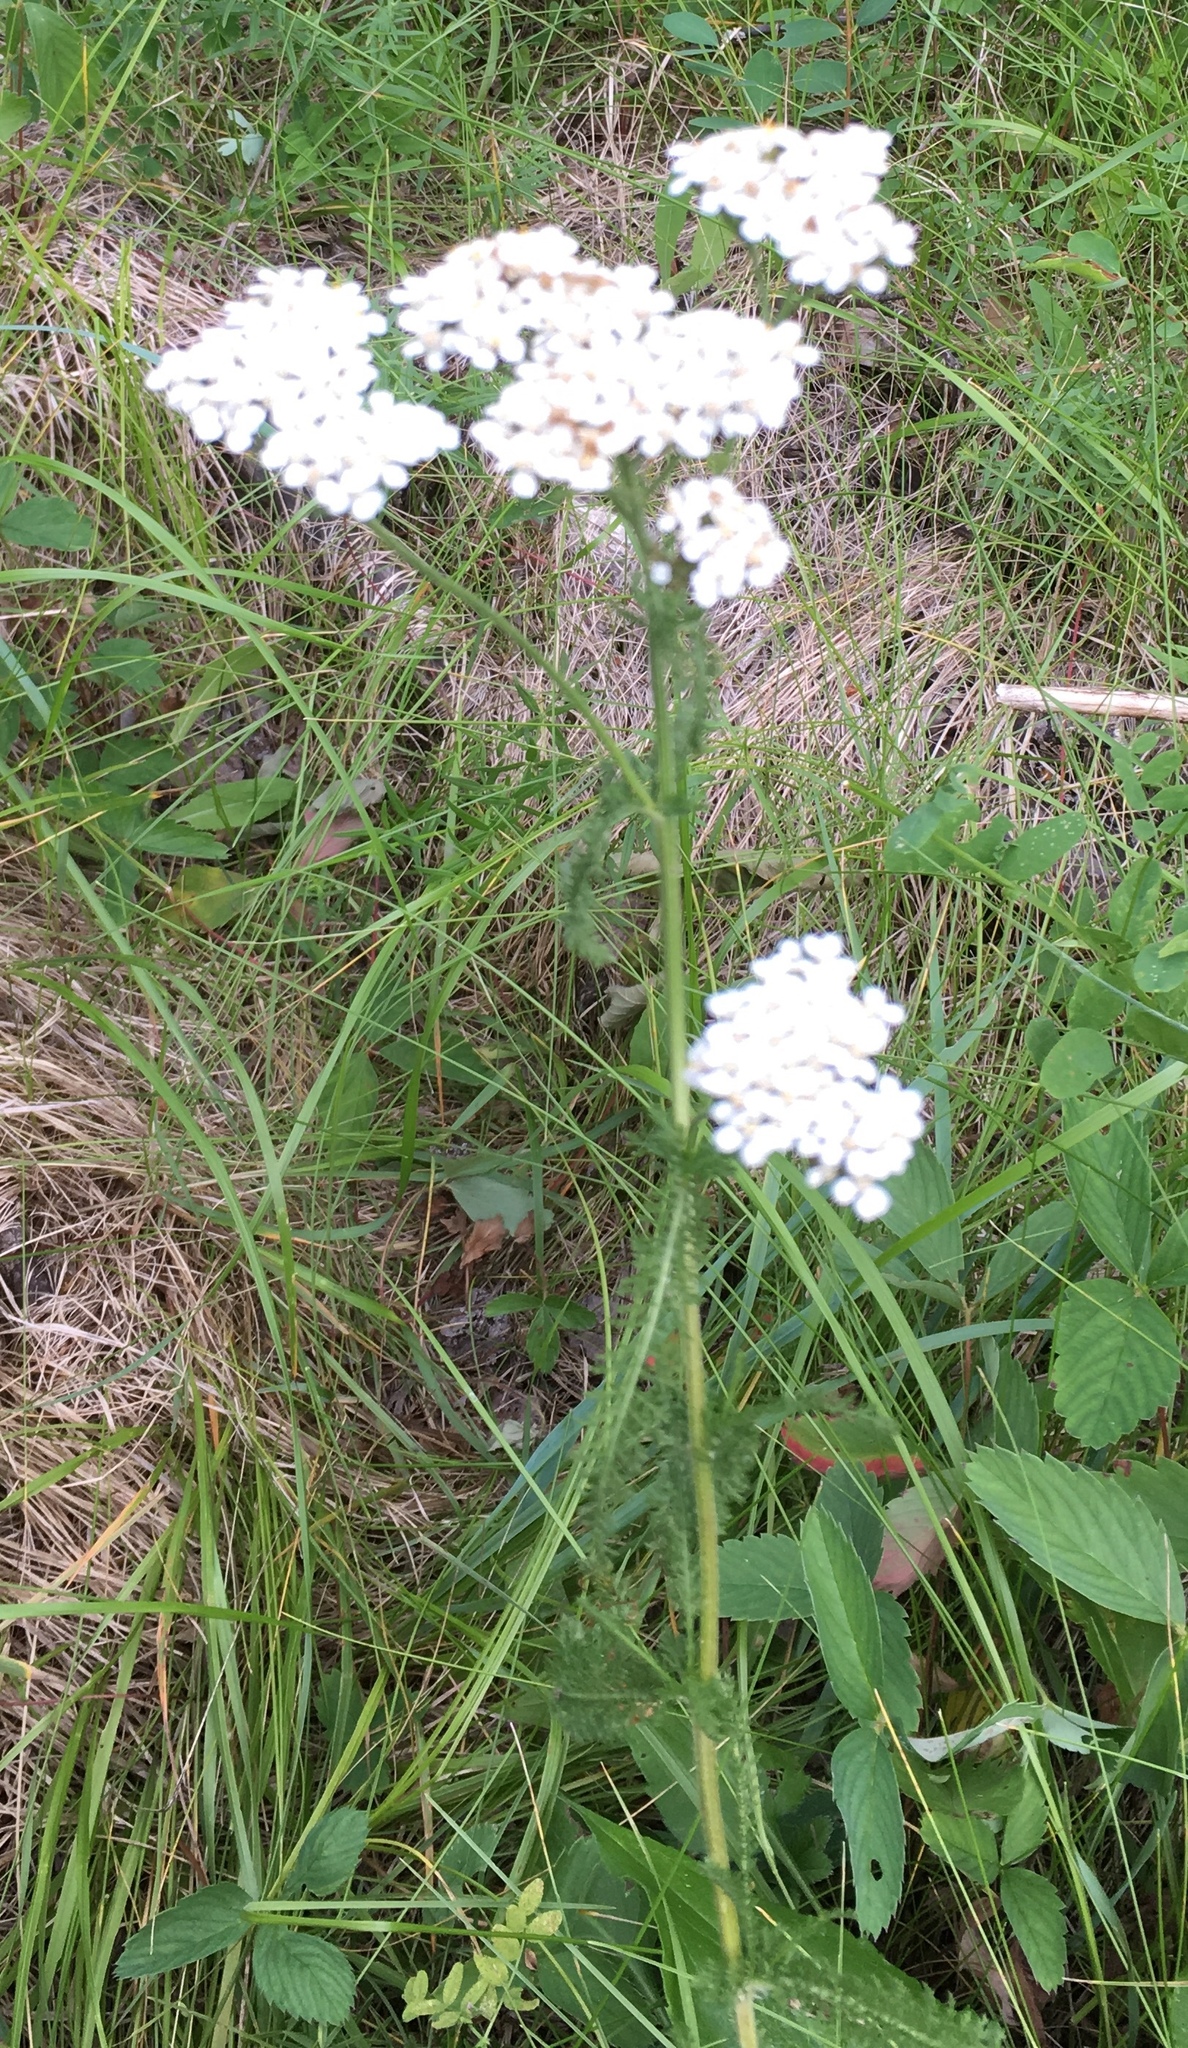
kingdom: Plantae
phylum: Tracheophyta
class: Magnoliopsida
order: Asterales
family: Asteraceae
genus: Achillea
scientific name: Achillea millefolium
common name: Yarrow
